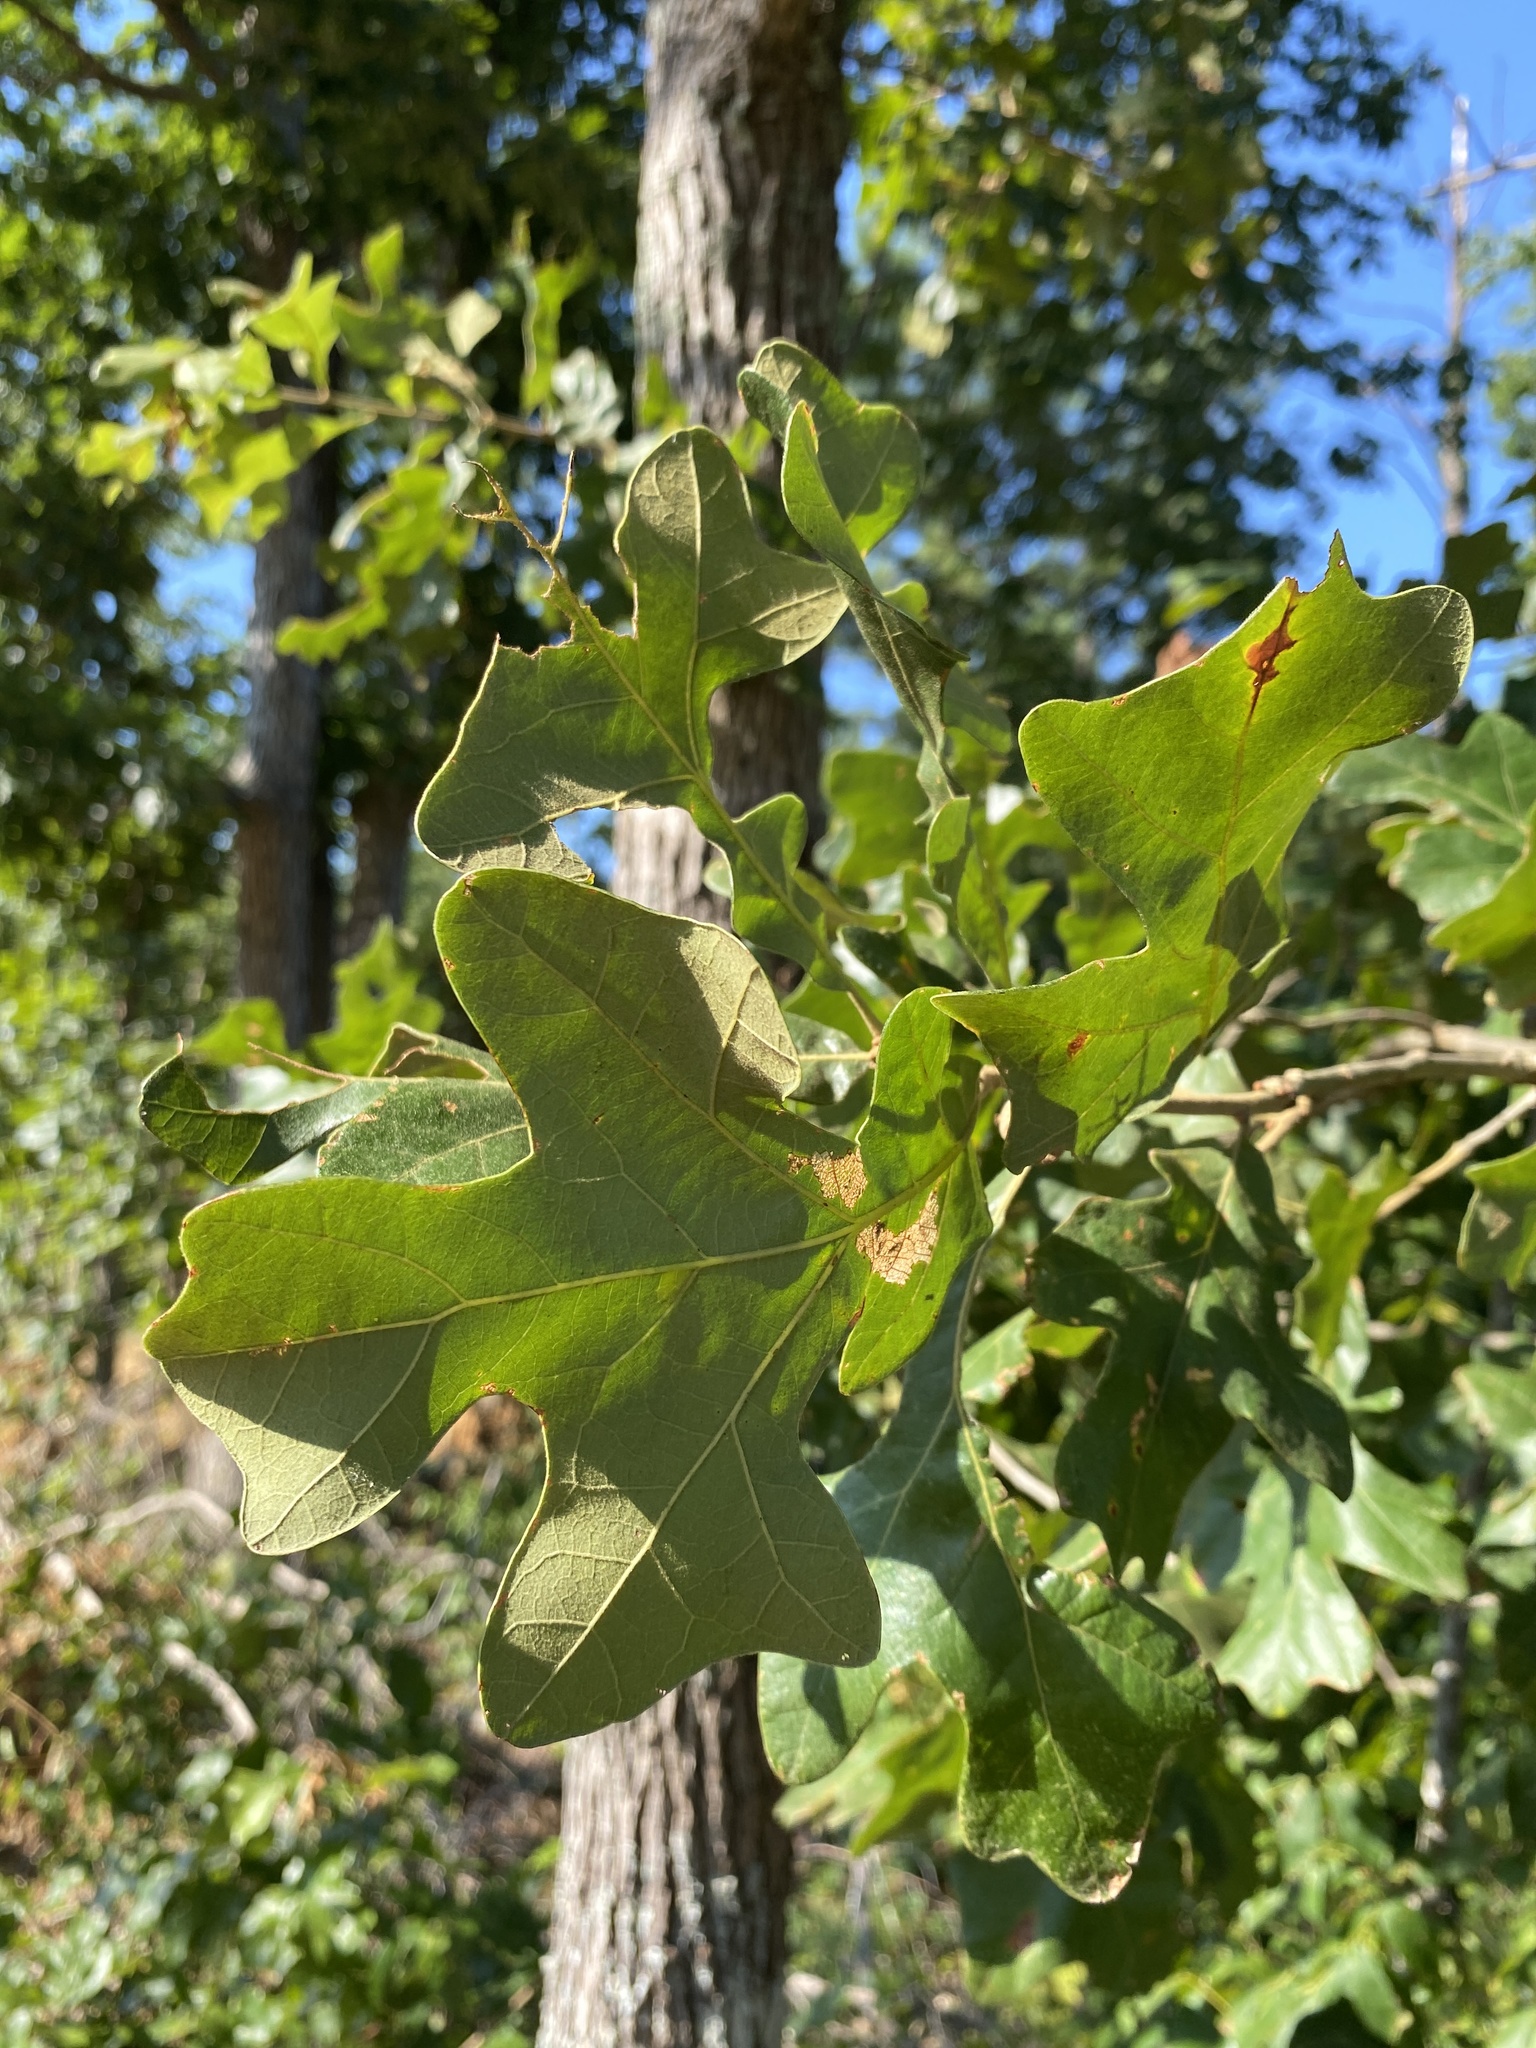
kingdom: Plantae
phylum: Tracheophyta
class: Magnoliopsida
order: Fagales
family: Fagaceae
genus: Quercus
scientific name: Quercus stellata
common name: Post oak
